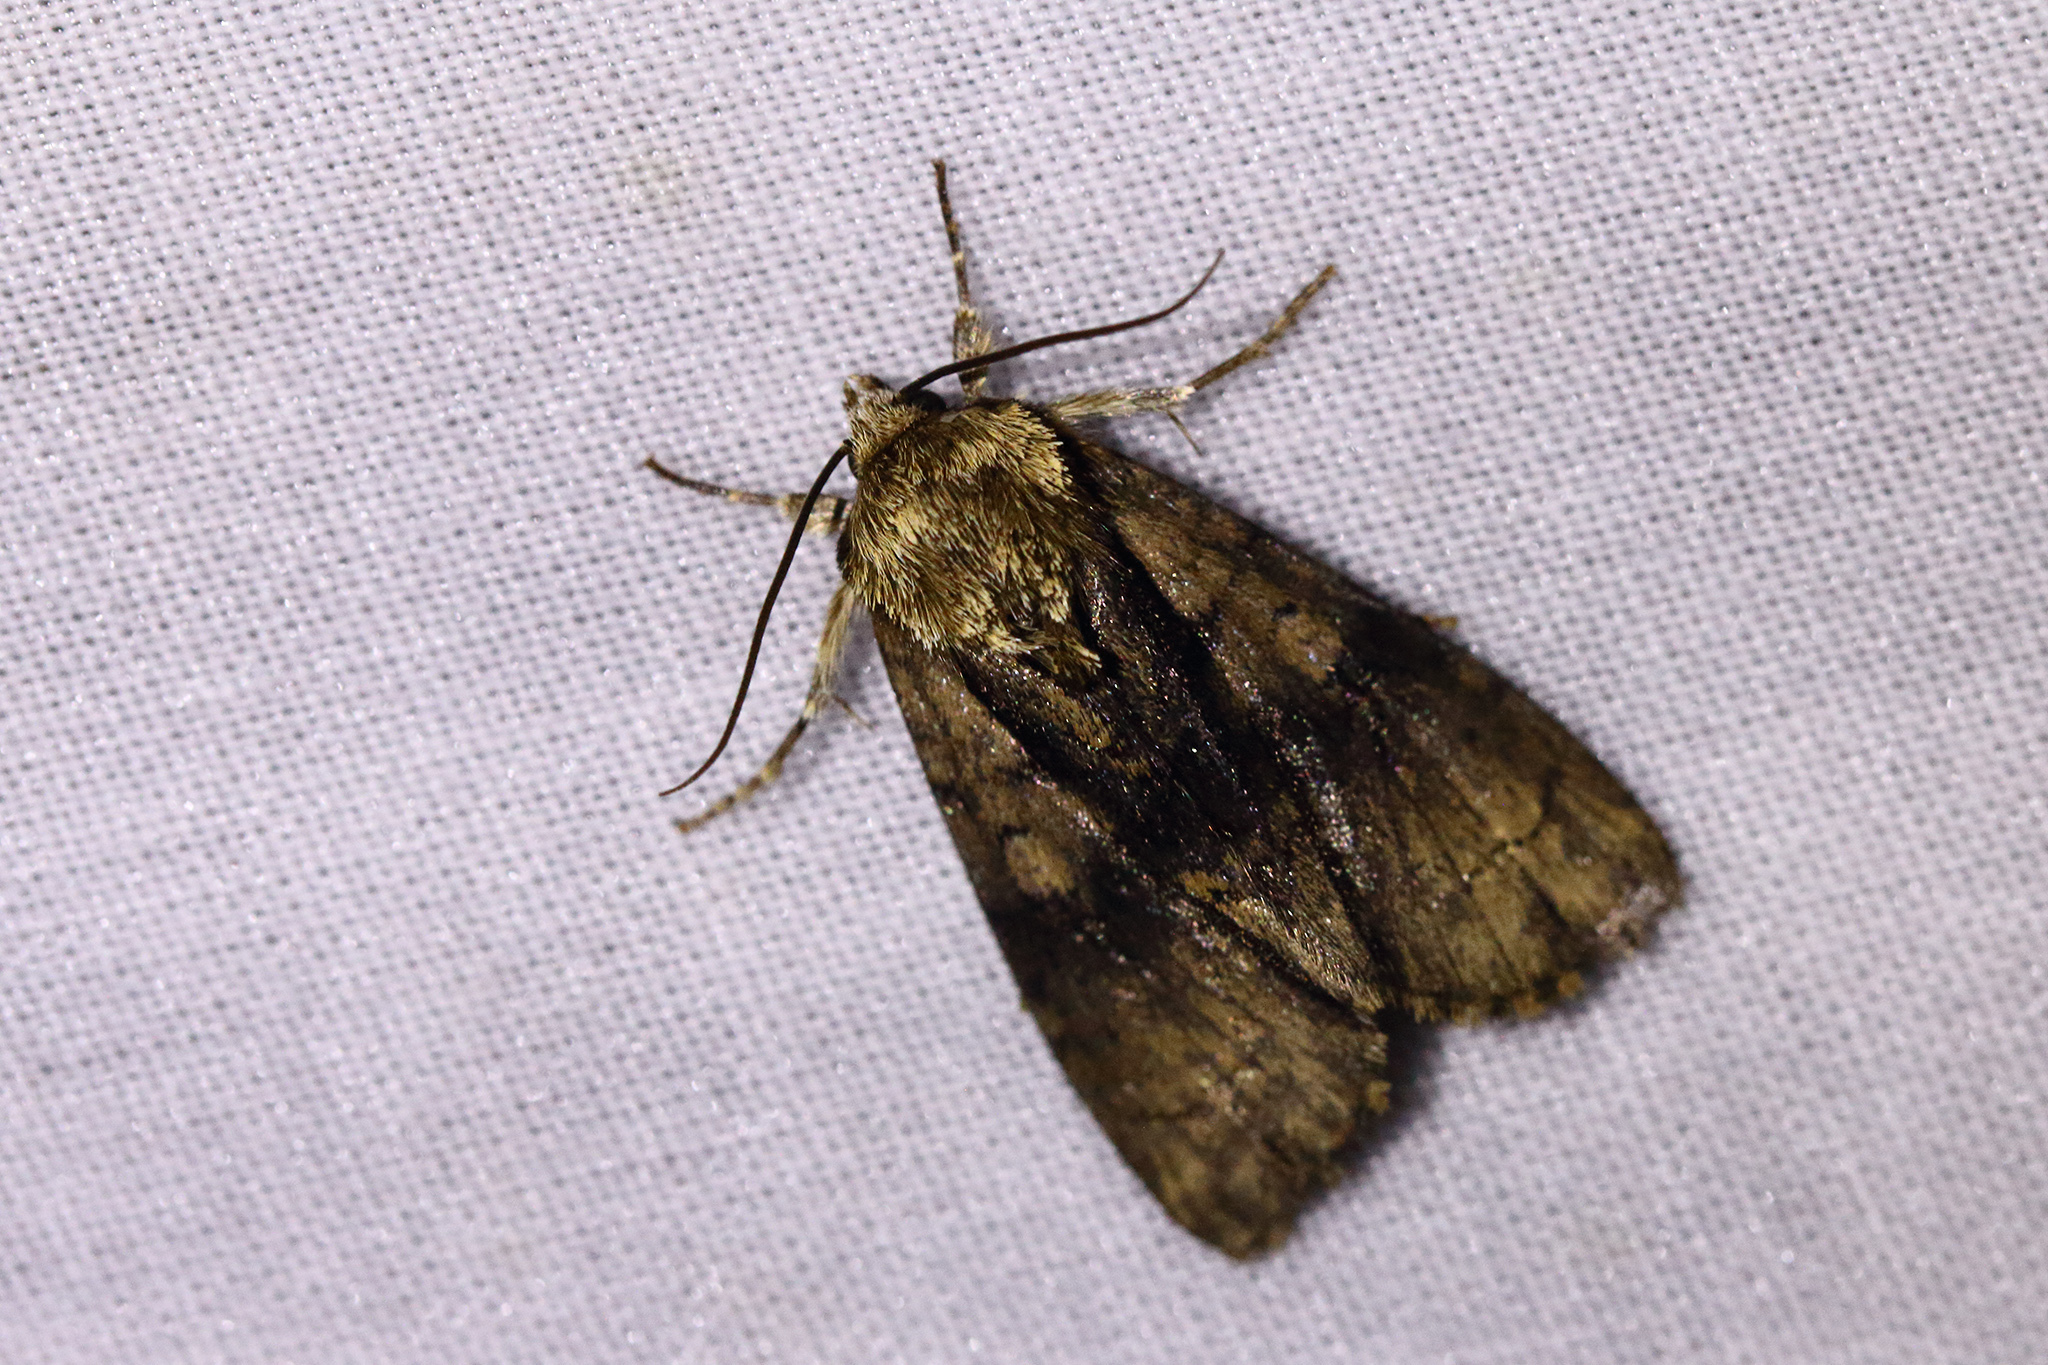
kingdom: Animalia
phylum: Arthropoda
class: Insecta
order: Lepidoptera
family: Noctuidae
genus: Acronicta
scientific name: Acronicta alni
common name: Alder moth
